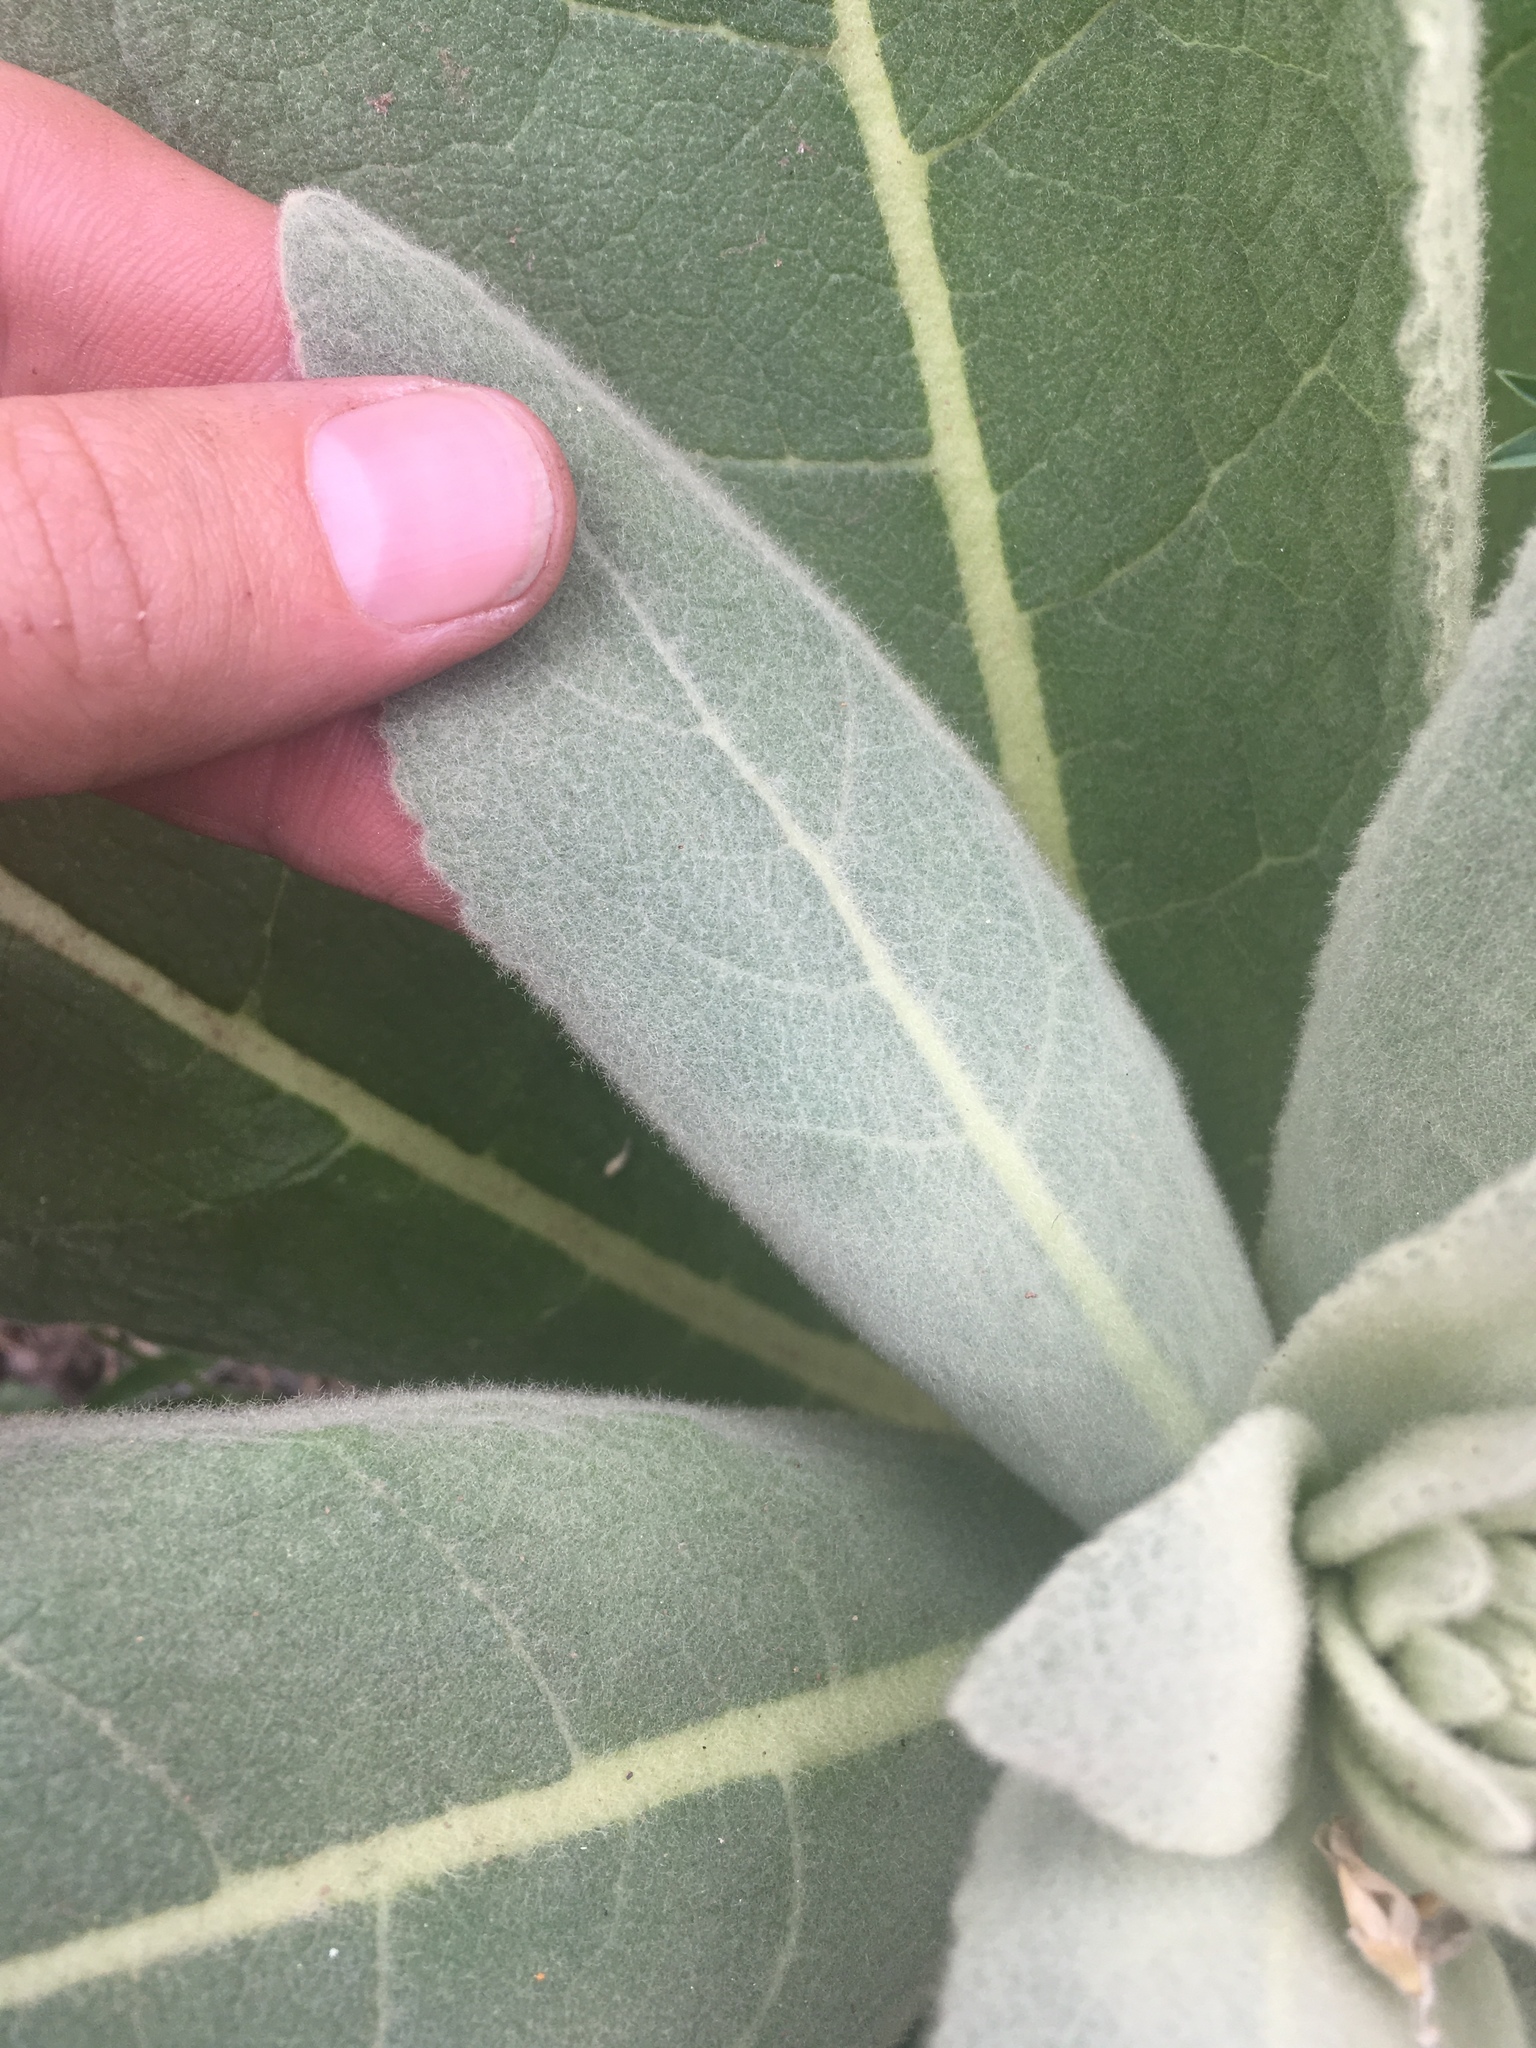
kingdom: Plantae
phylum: Tracheophyta
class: Magnoliopsida
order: Lamiales
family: Scrophulariaceae
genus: Verbascum
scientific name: Verbascum thapsus
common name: Common mullein
